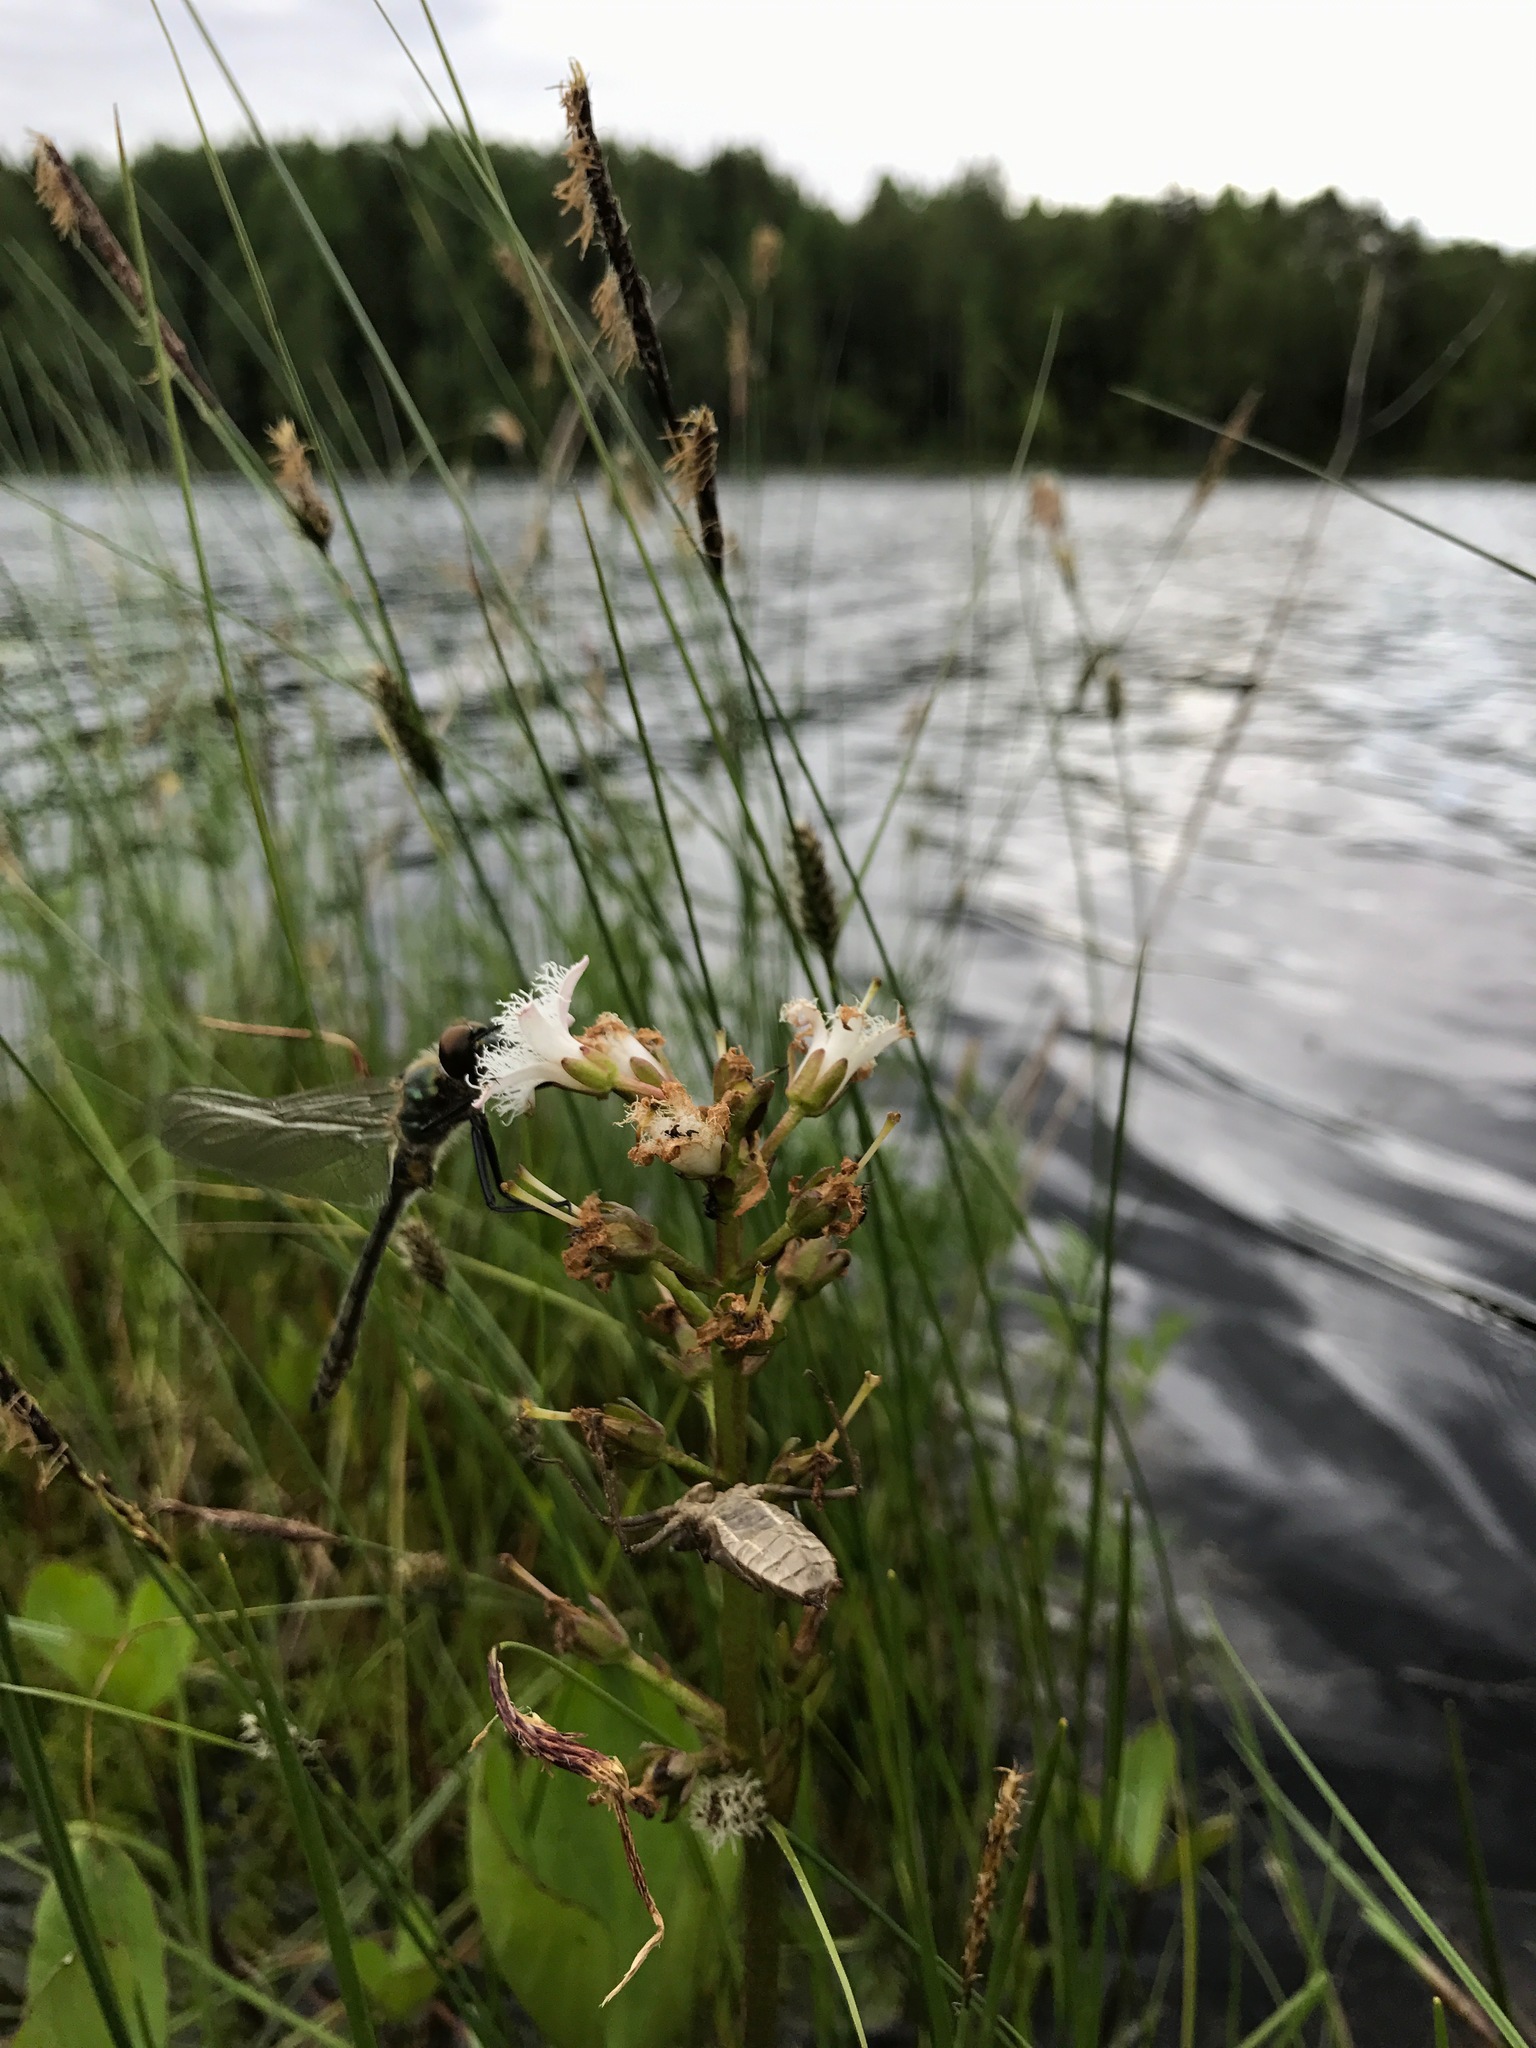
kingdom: Animalia
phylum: Arthropoda
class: Insecta
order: Odonata
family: Corduliidae
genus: Cordulia
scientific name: Cordulia aenea
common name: Downy emerald
